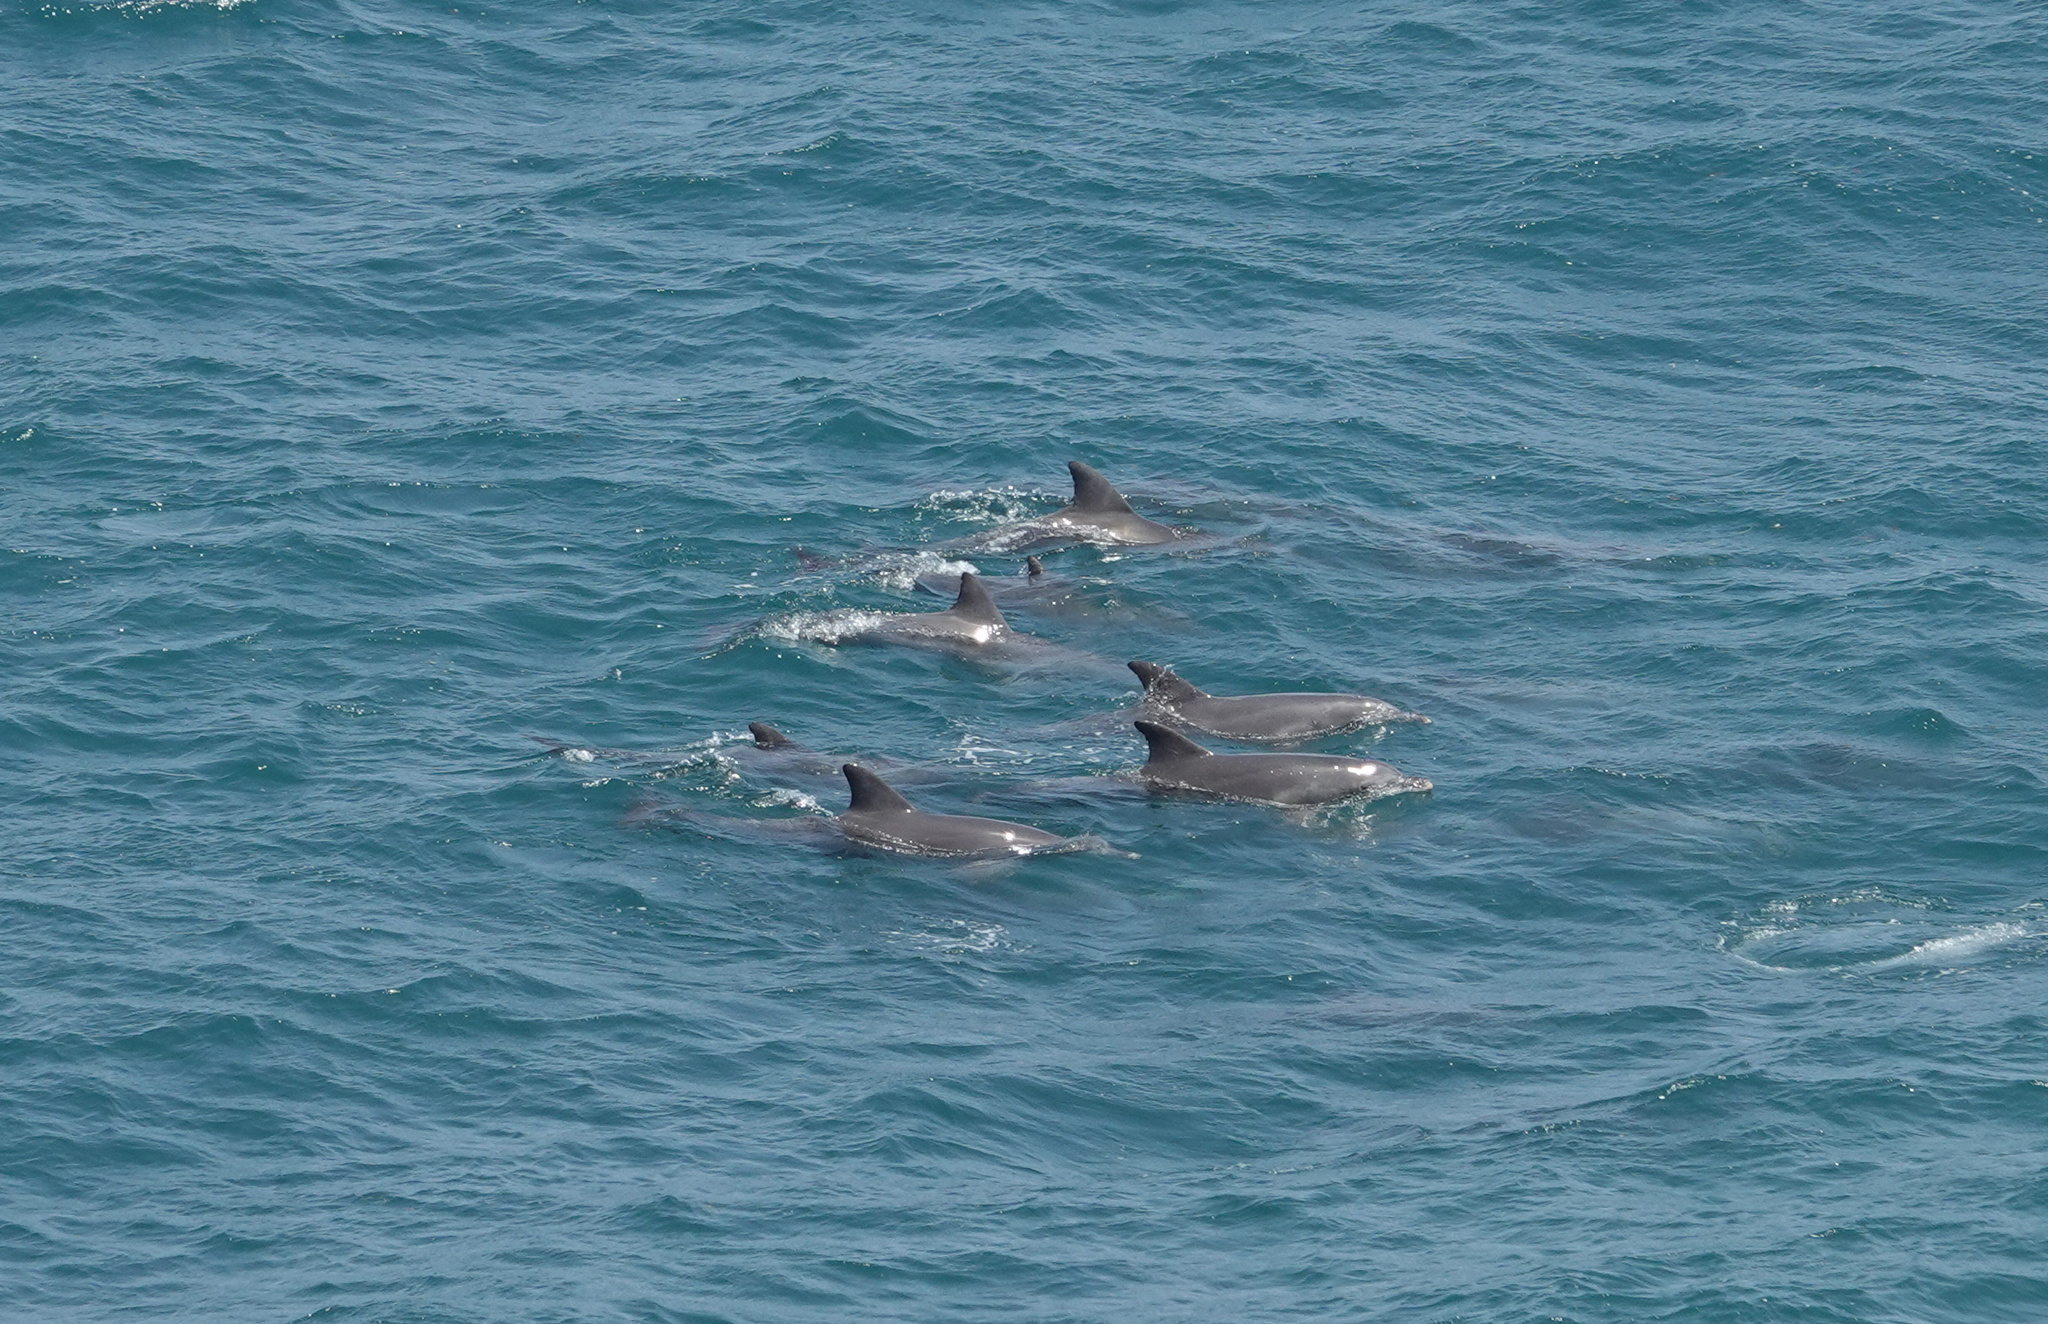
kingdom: Animalia
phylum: Chordata
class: Mammalia
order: Cetacea
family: Delphinidae
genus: Tursiops
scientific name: Tursiops aduncus
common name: Indo-pacific bottlenose dolphin
